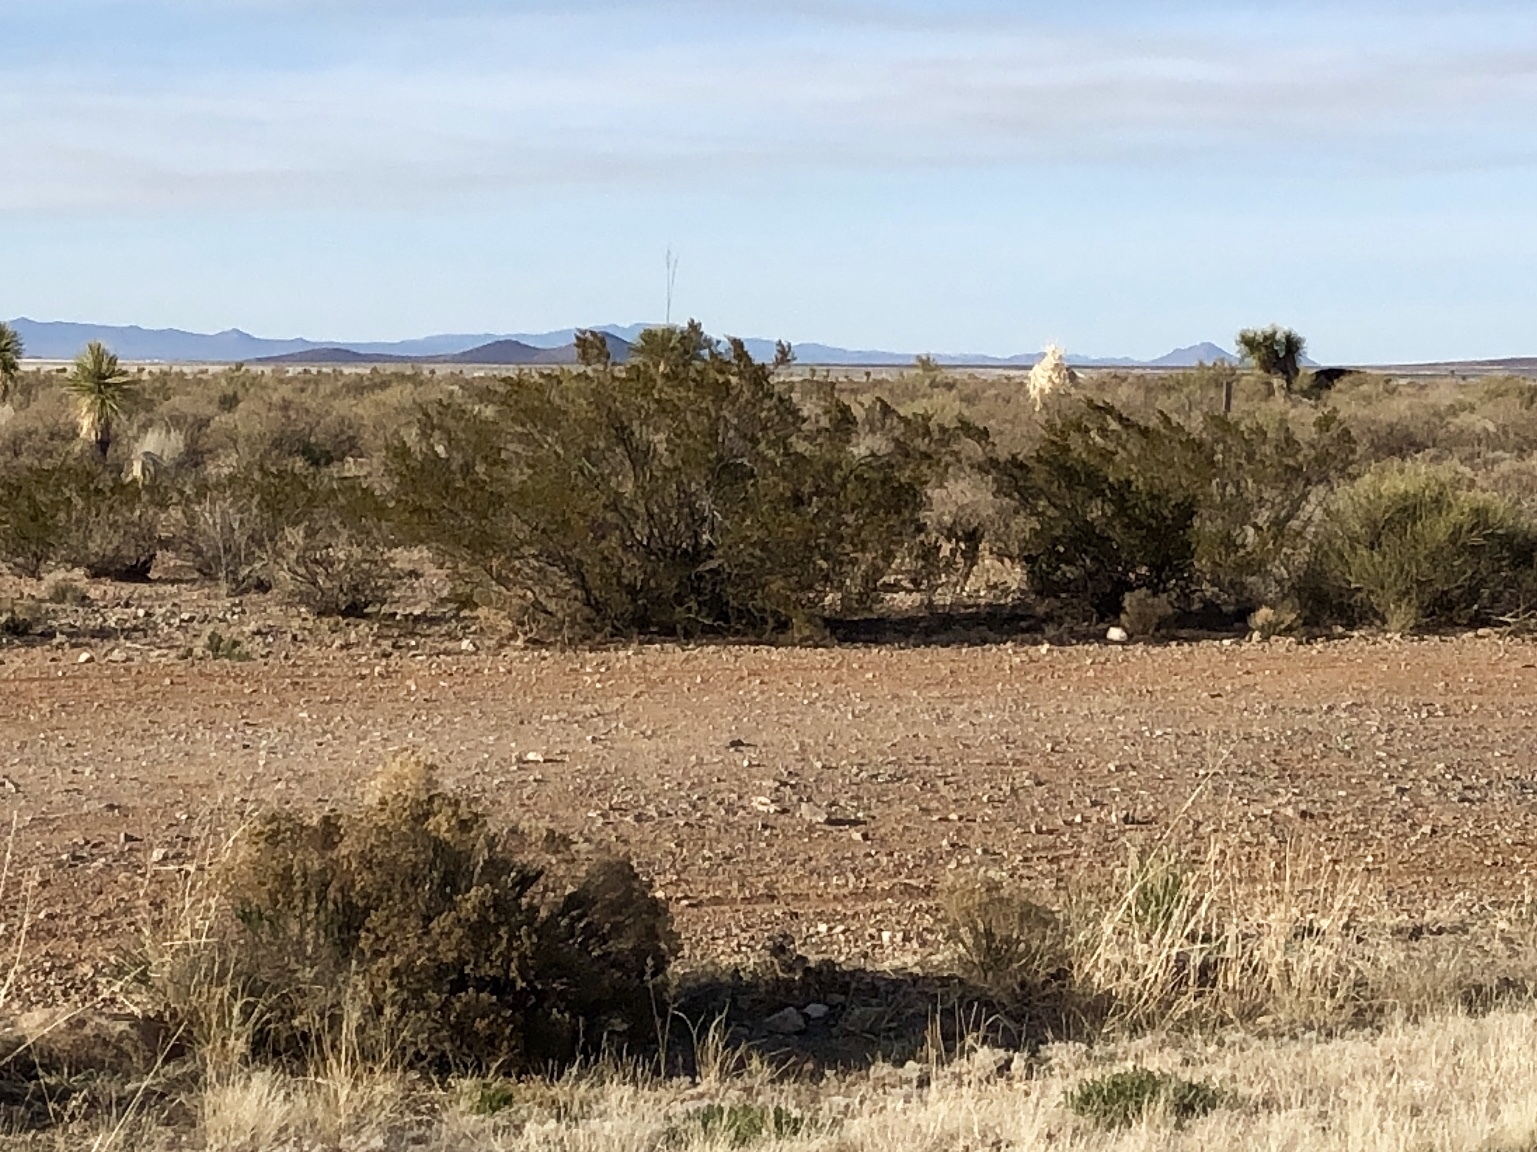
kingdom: Plantae
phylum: Tracheophyta
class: Magnoliopsida
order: Zygophyllales
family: Zygophyllaceae
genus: Larrea
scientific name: Larrea tridentata
